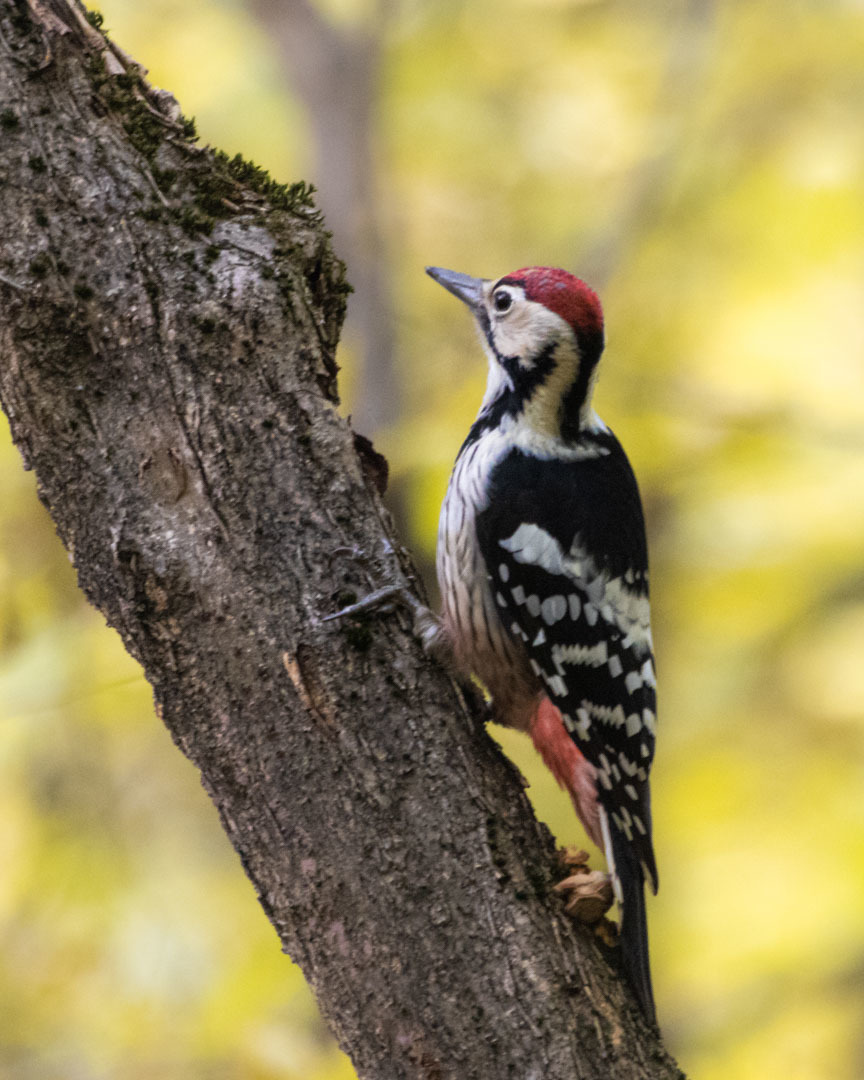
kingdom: Animalia
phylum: Chordata
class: Aves
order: Piciformes
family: Picidae
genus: Dendrocopos
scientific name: Dendrocopos leucotos
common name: White-backed woodpecker
